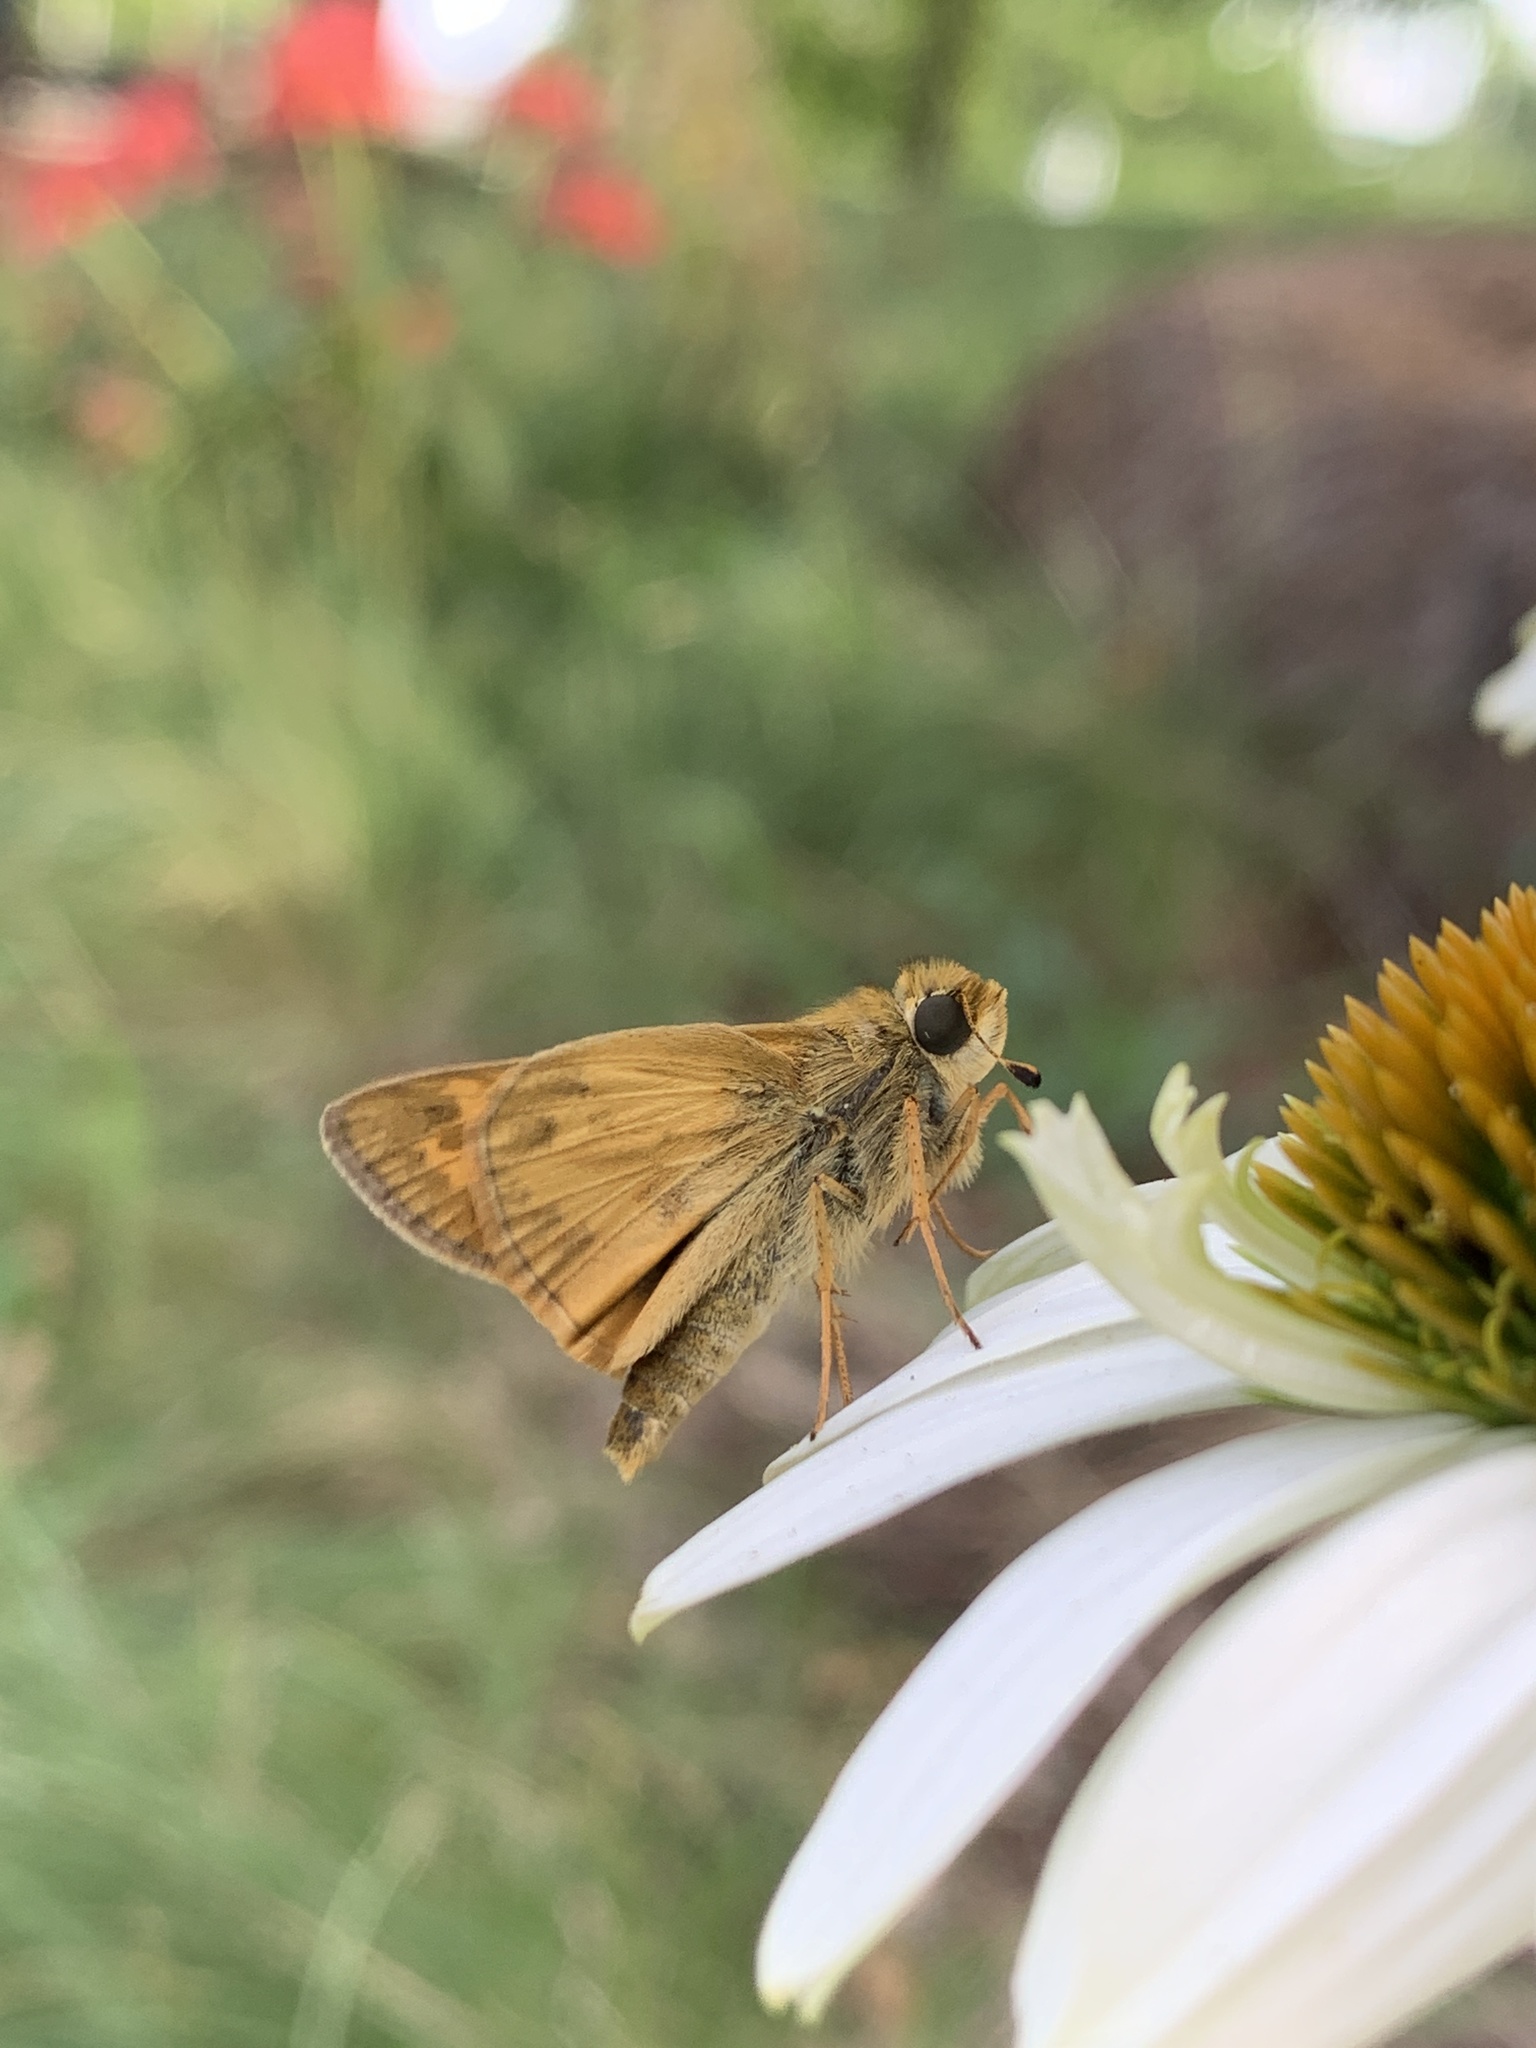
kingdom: Animalia
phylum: Arthropoda
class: Insecta
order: Lepidoptera
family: Hesperiidae
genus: Atalopedes
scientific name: Atalopedes
